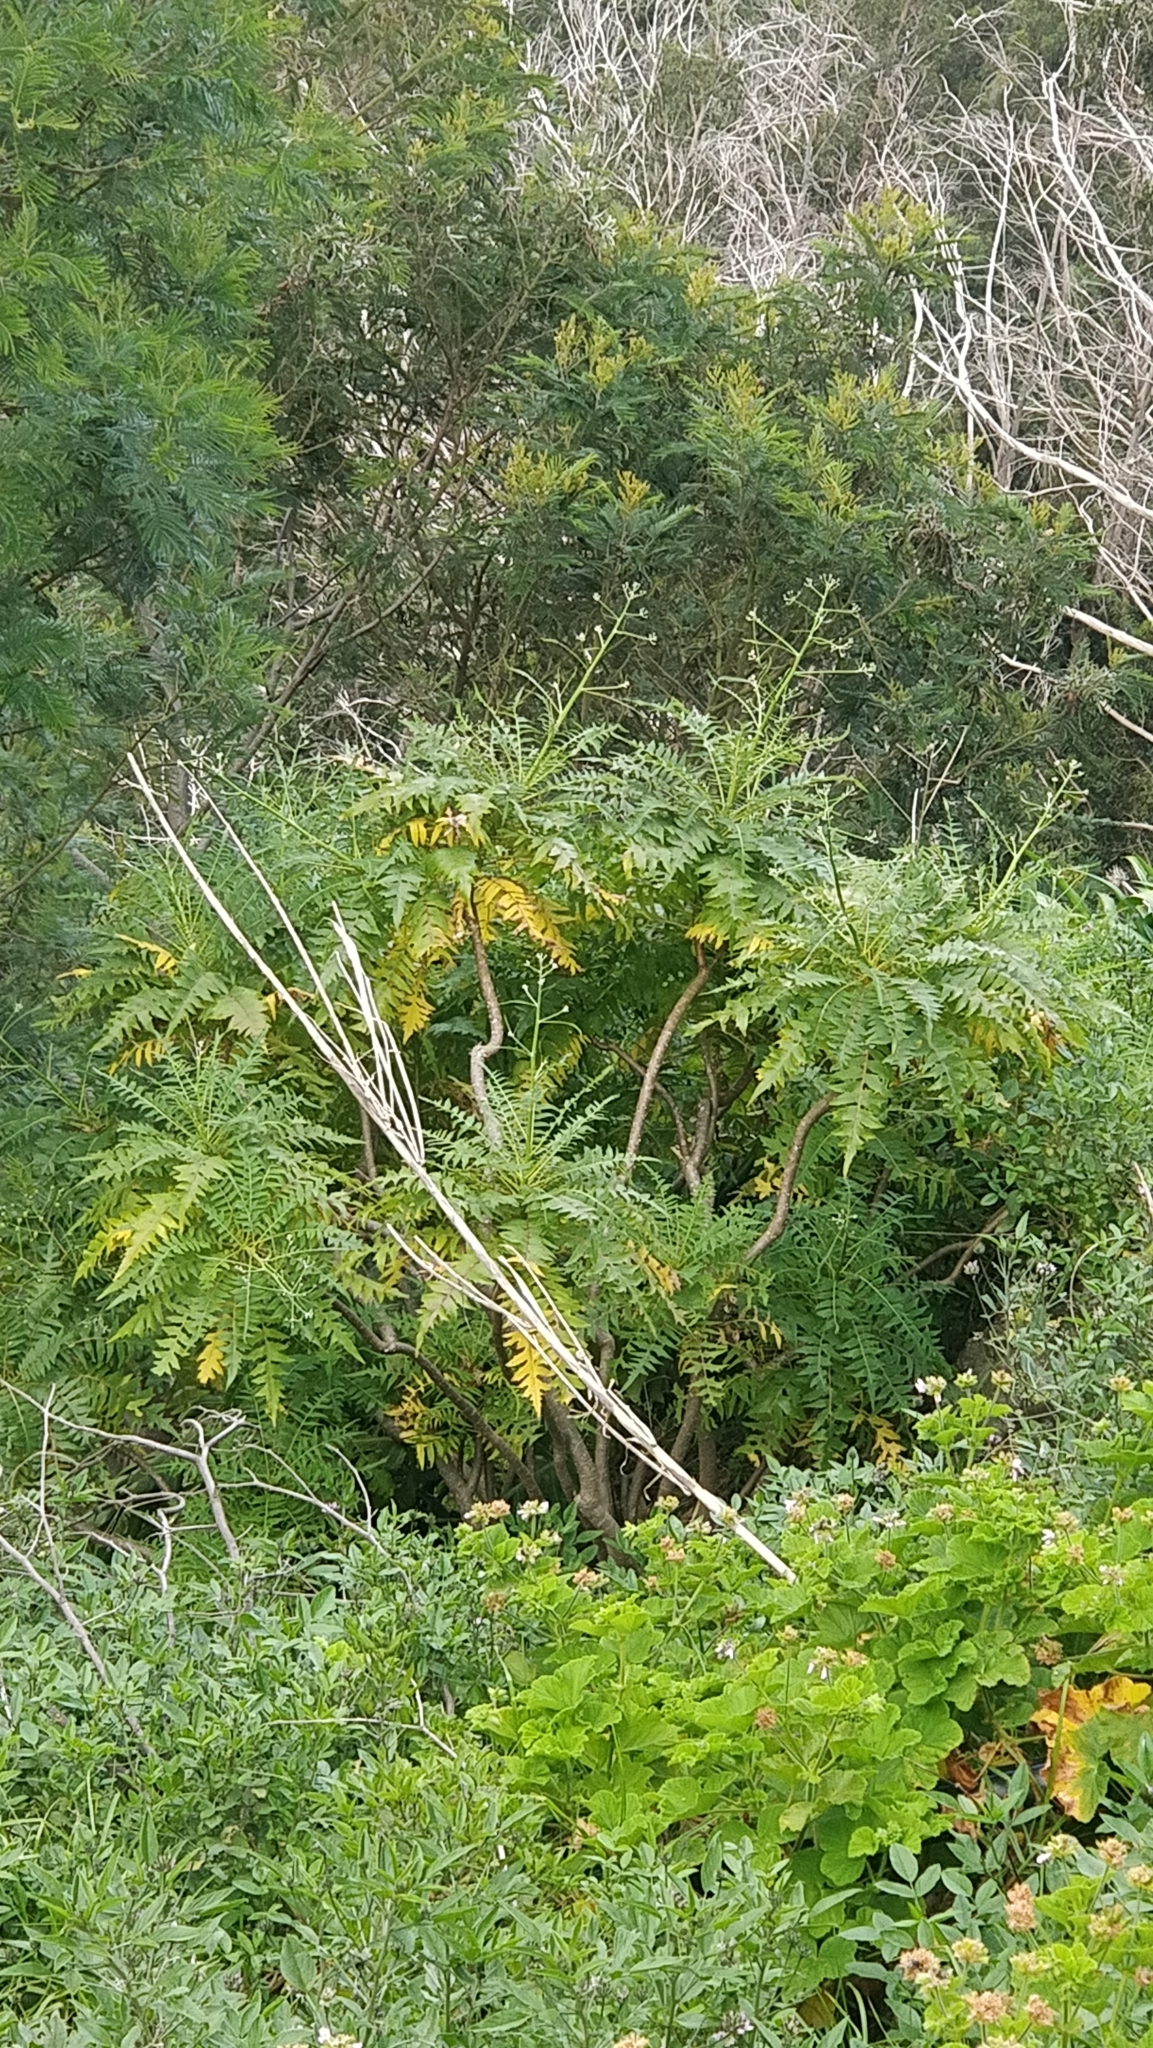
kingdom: Plantae
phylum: Tracheophyta
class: Magnoliopsida
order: Asterales
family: Asteraceae
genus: Sonchus
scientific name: Sonchus pinnatus
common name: Wing-leaved sow-thistle
